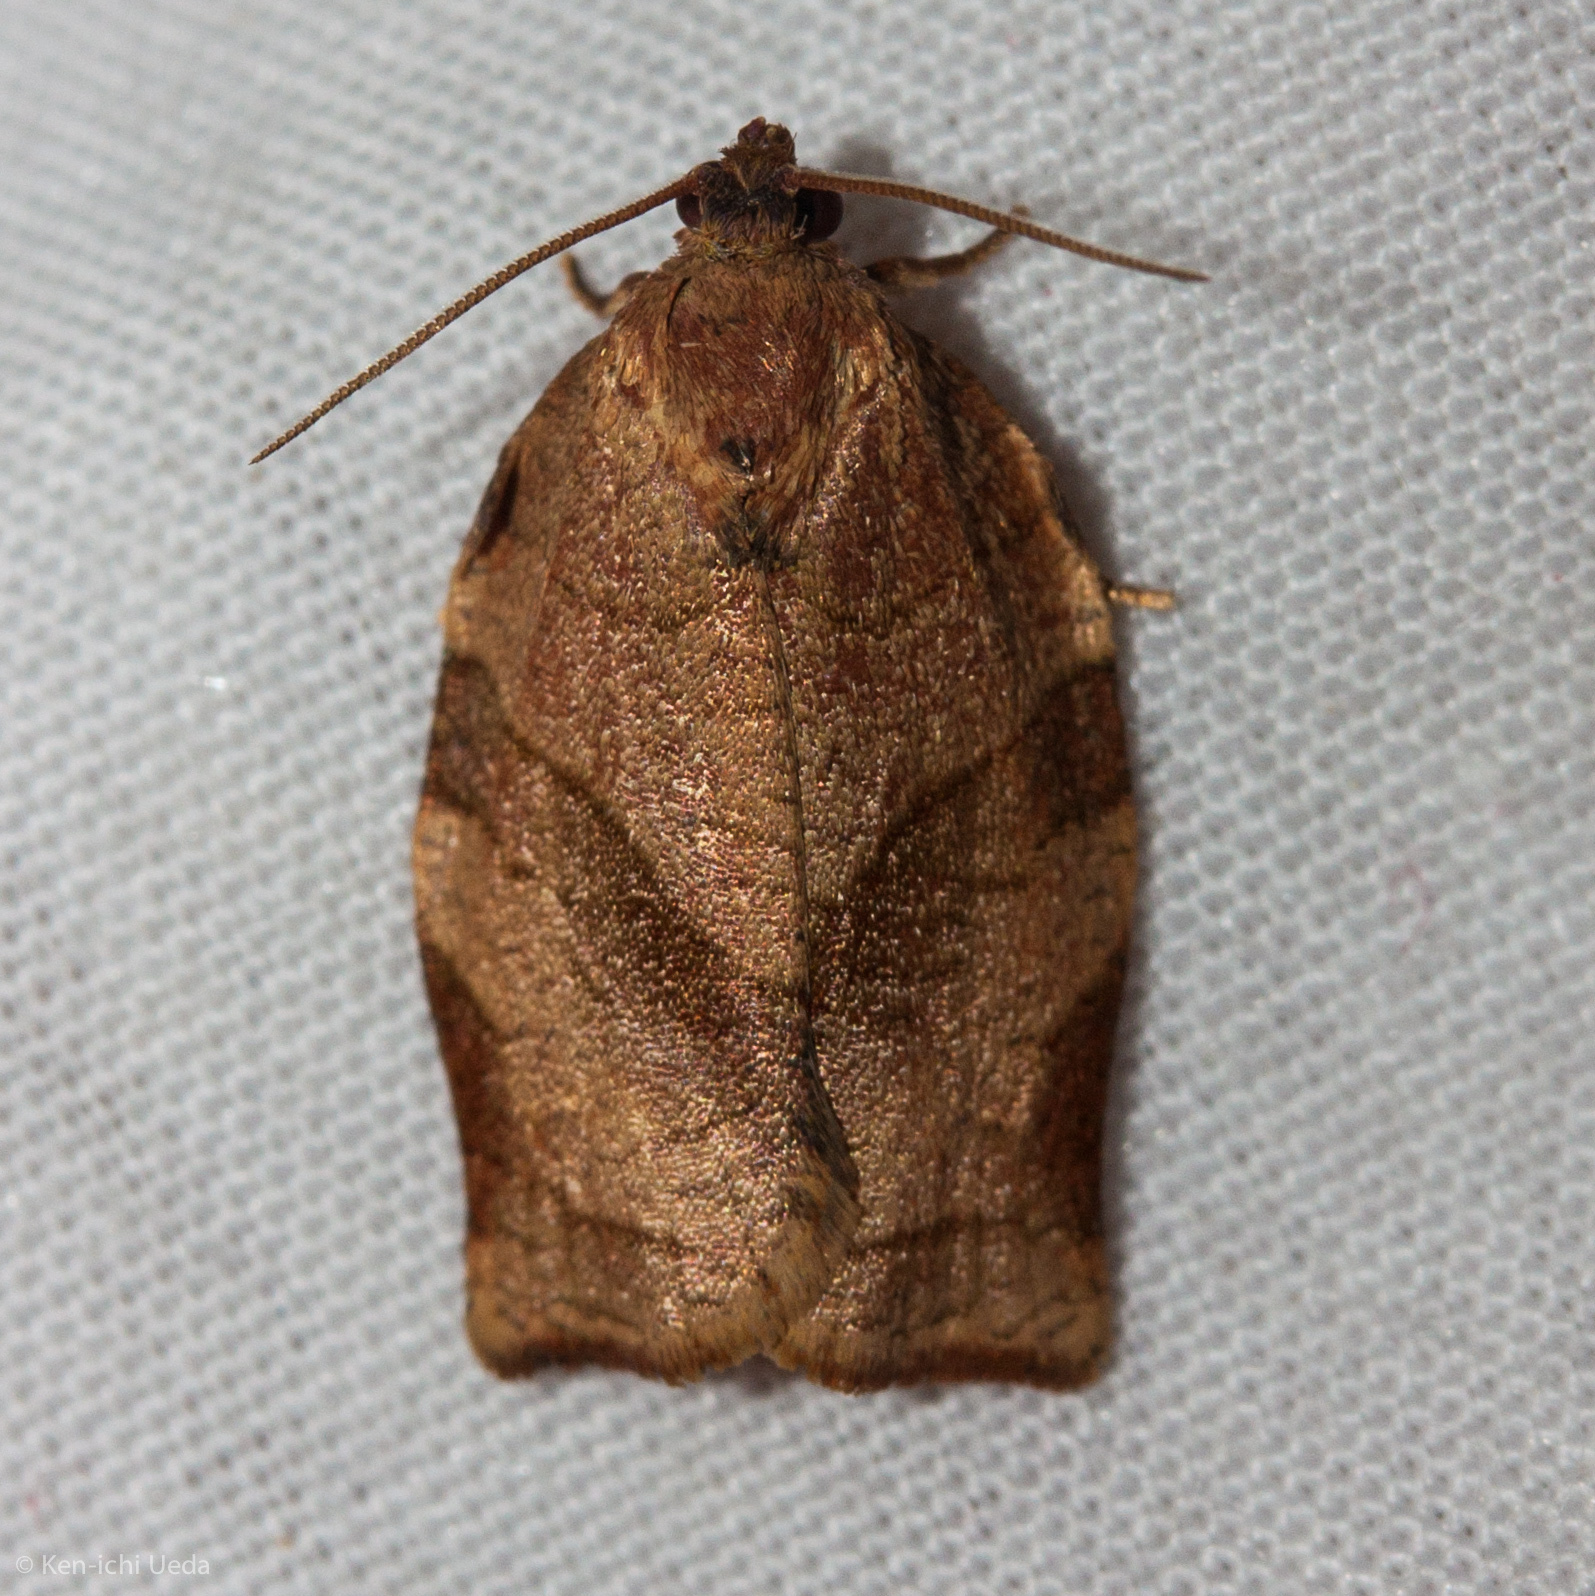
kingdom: Animalia
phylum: Arthropoda
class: Insecta
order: Lepidoptera
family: Tortricidae
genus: Choristoneura
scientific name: Choristoneura rosaceana
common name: Oblique-banded leafroller moth
